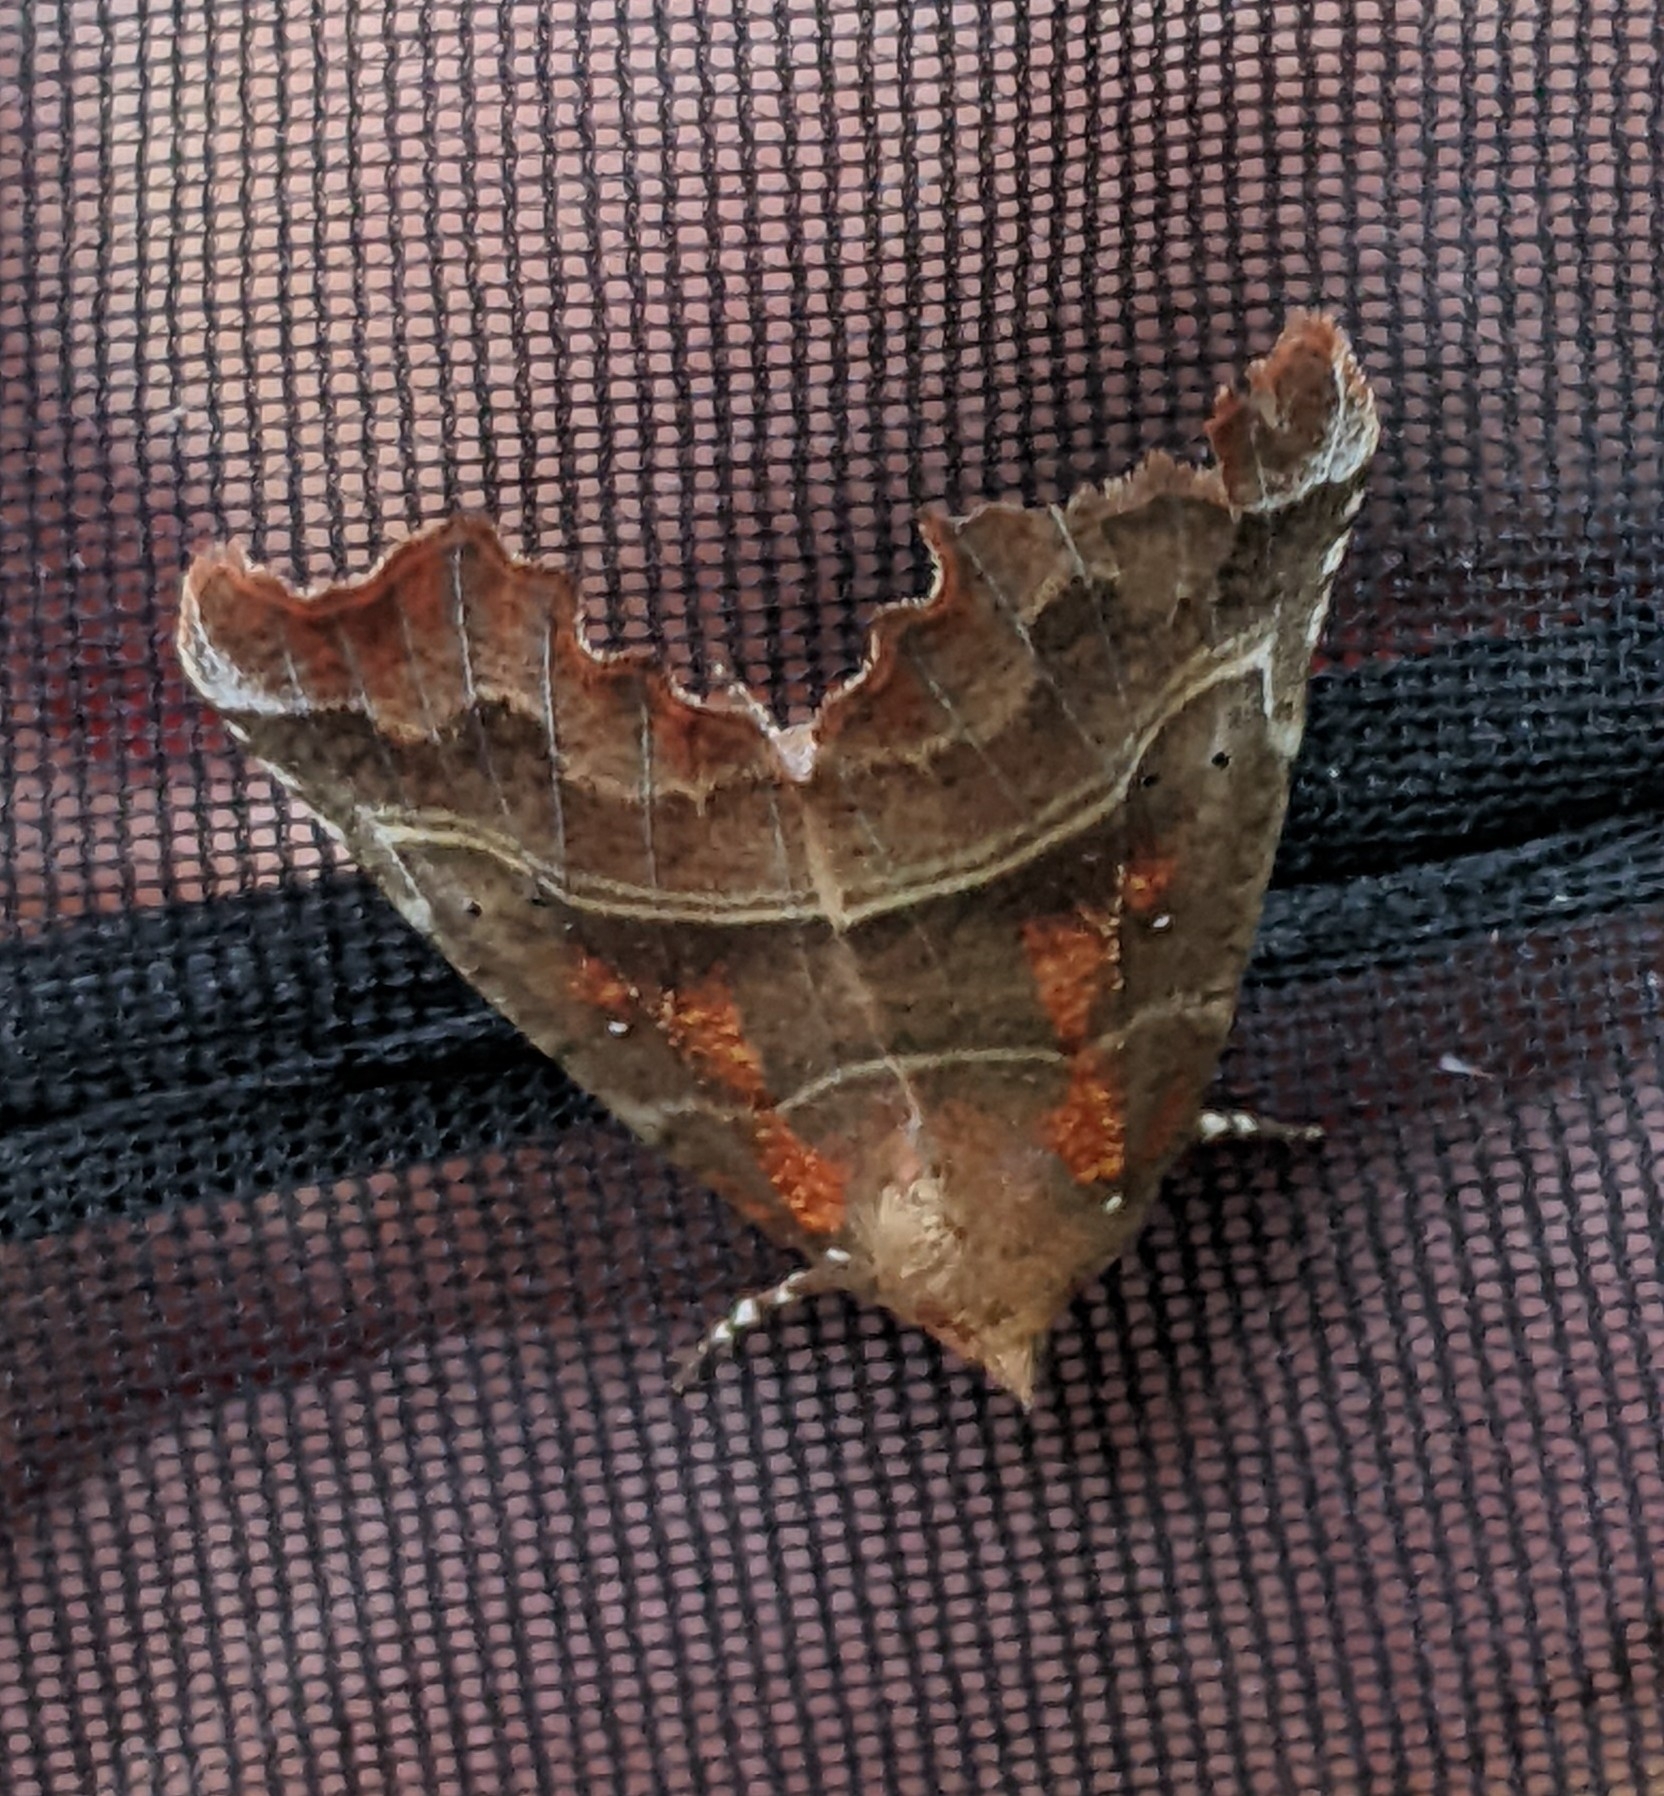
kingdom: Animalia
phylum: Arthropoda
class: Insecta
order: Lepidoptera
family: Erebidae
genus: Scoliopteryx
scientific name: Scoliopteryx libatrix
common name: Herald
